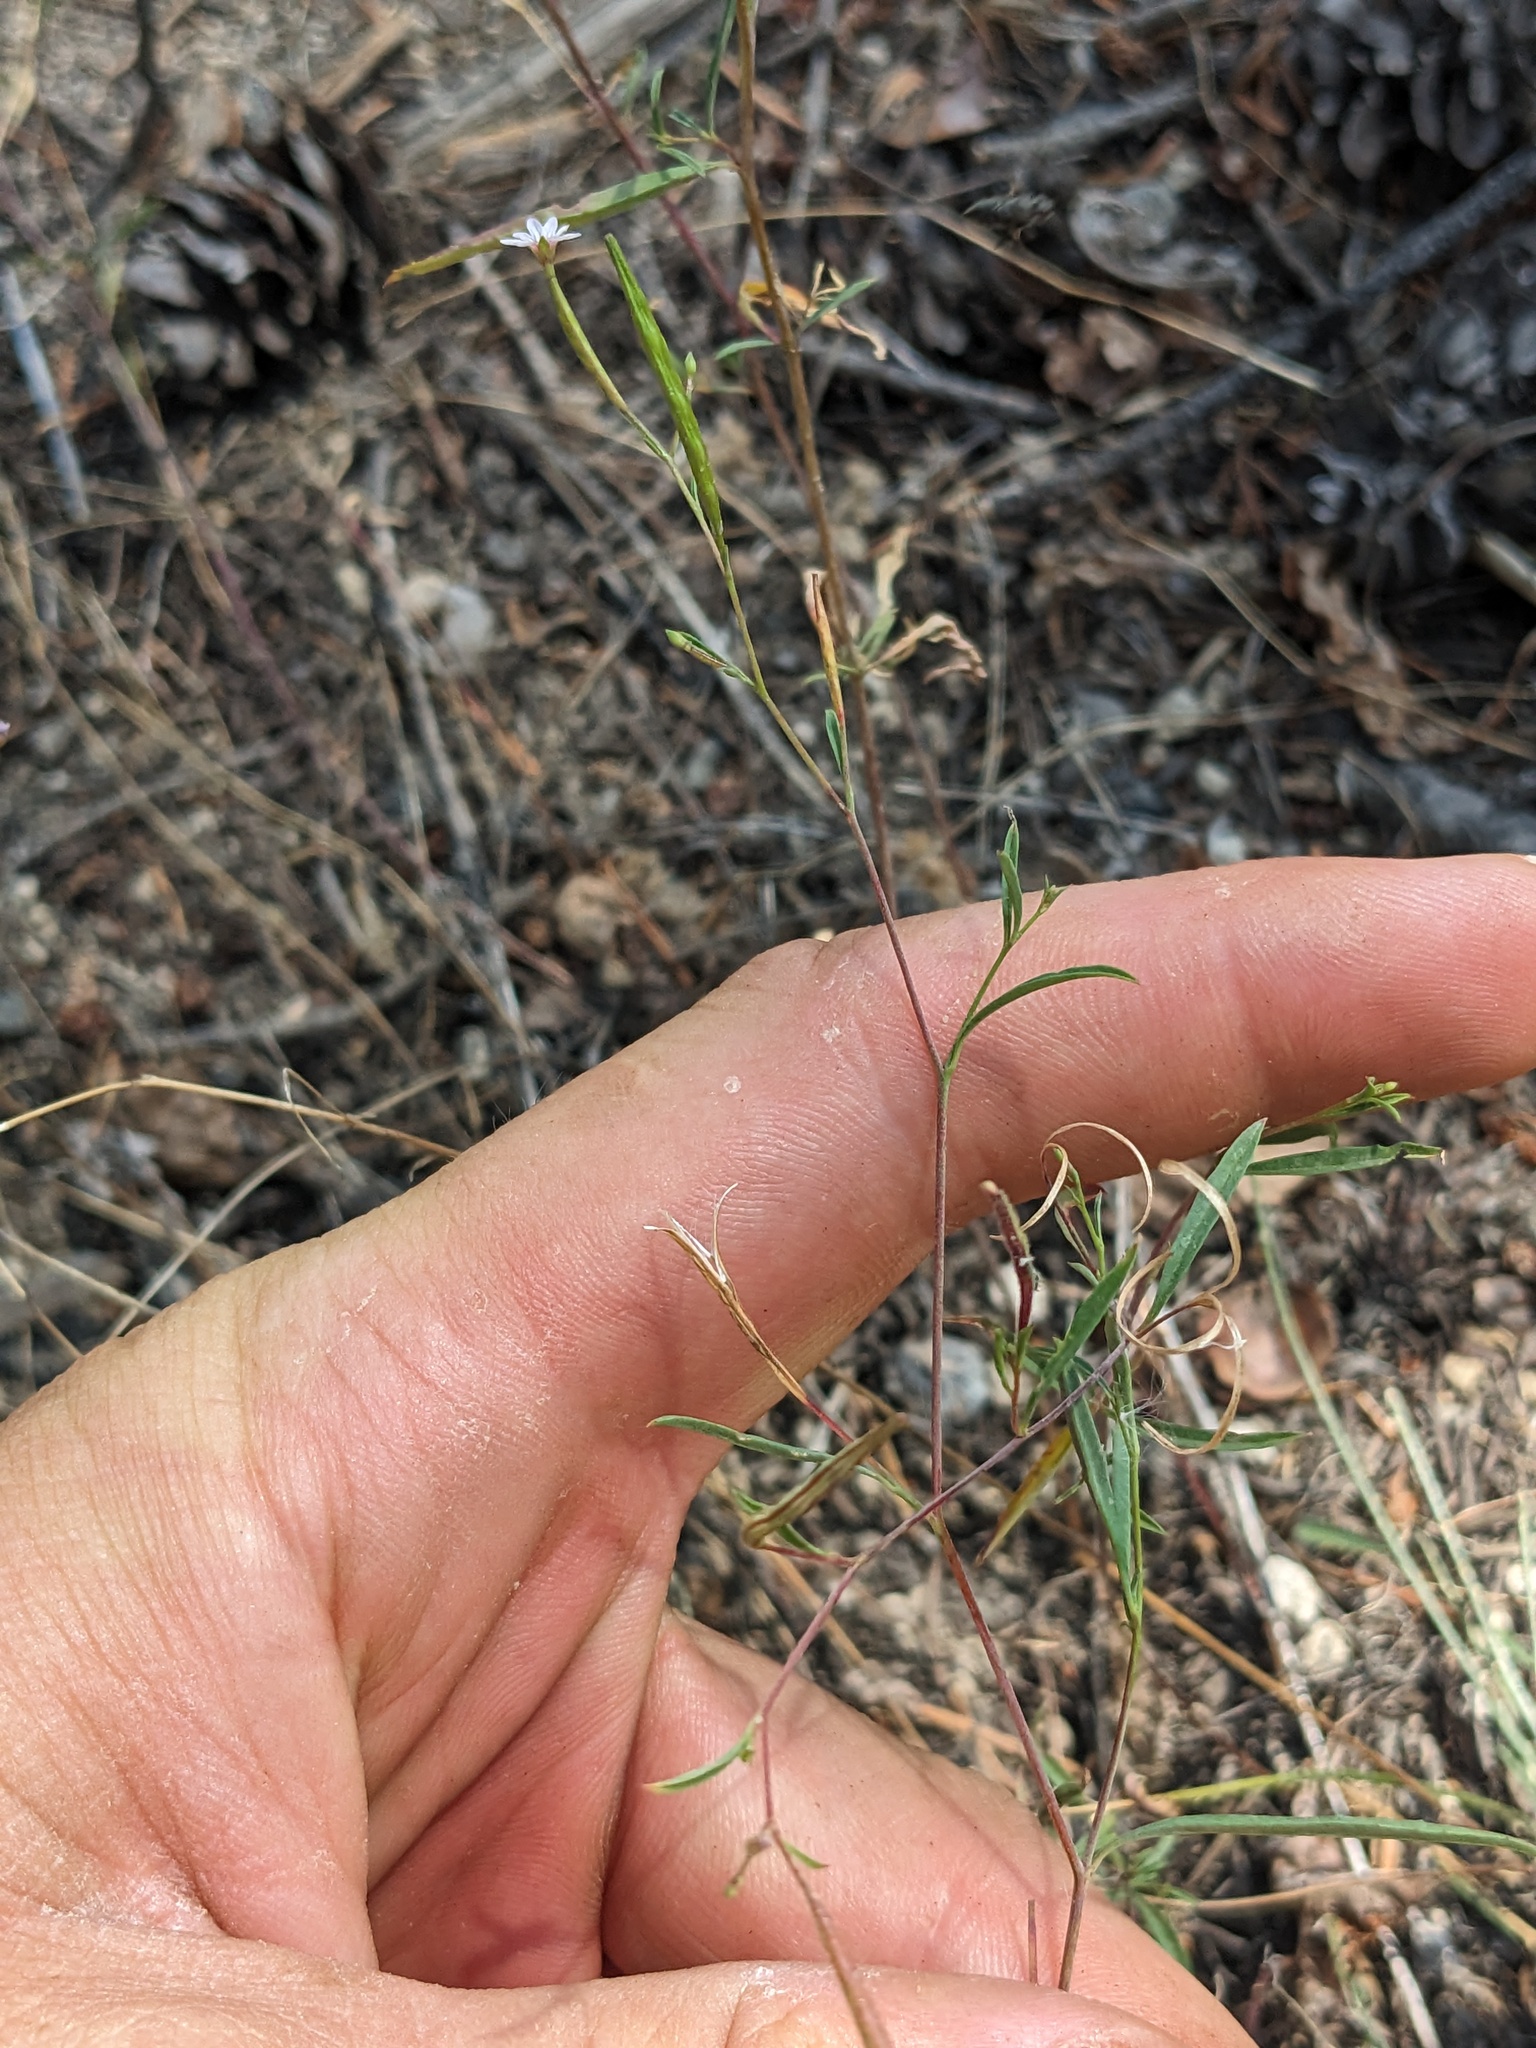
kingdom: Plantae
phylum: Tracheophyta
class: Magnoliopsida
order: Myrtales
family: Onagraceae
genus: Epilobium
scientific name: Epilobium brachycarpum
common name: Annual willowherb
